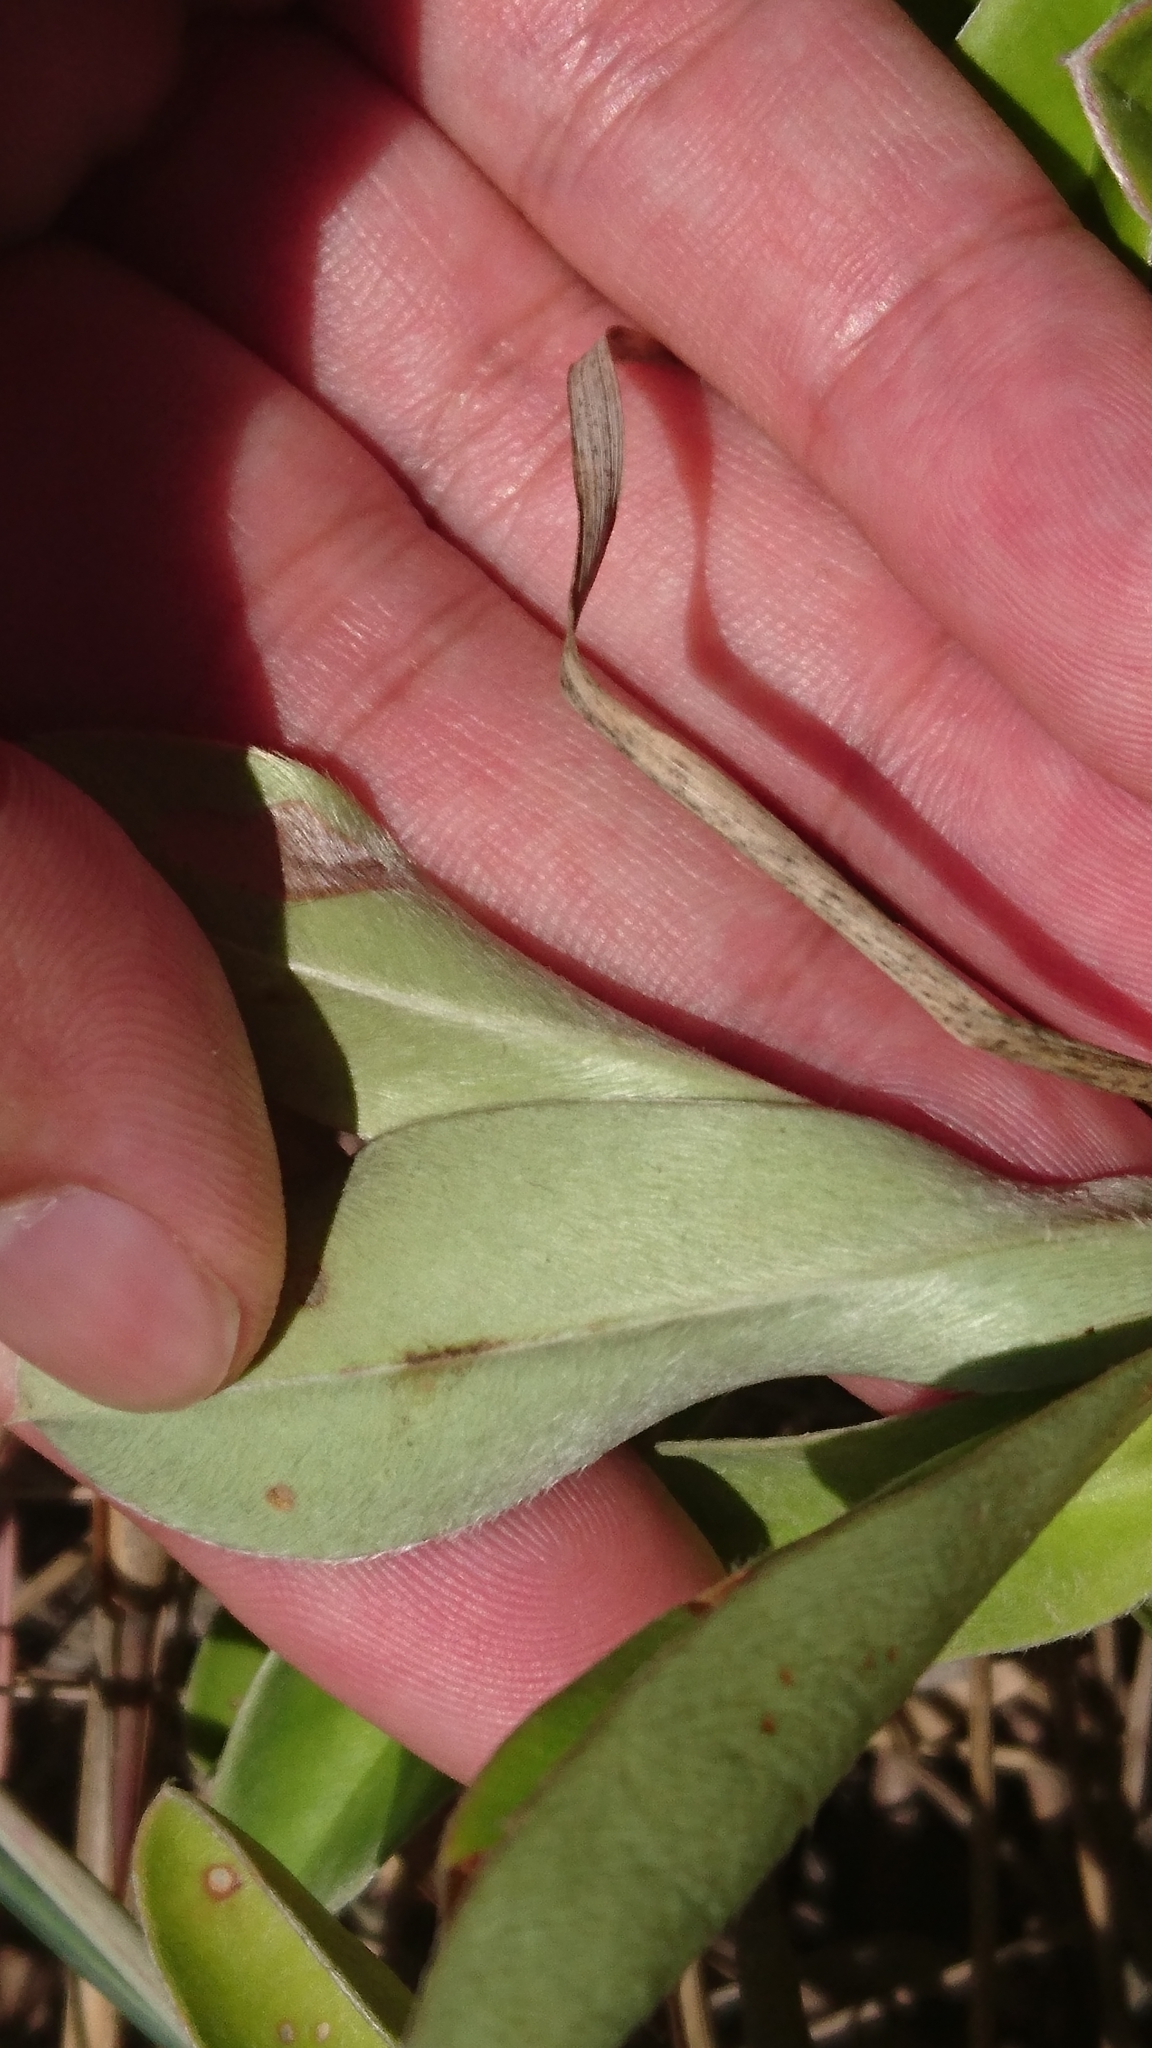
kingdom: Plantae
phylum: Tracheophyta
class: Magnoliopsida
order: Dilleniales
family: Dilleniaceae
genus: Hibbertia
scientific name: Hibbertia scandens
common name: Climbing guinea-flower
